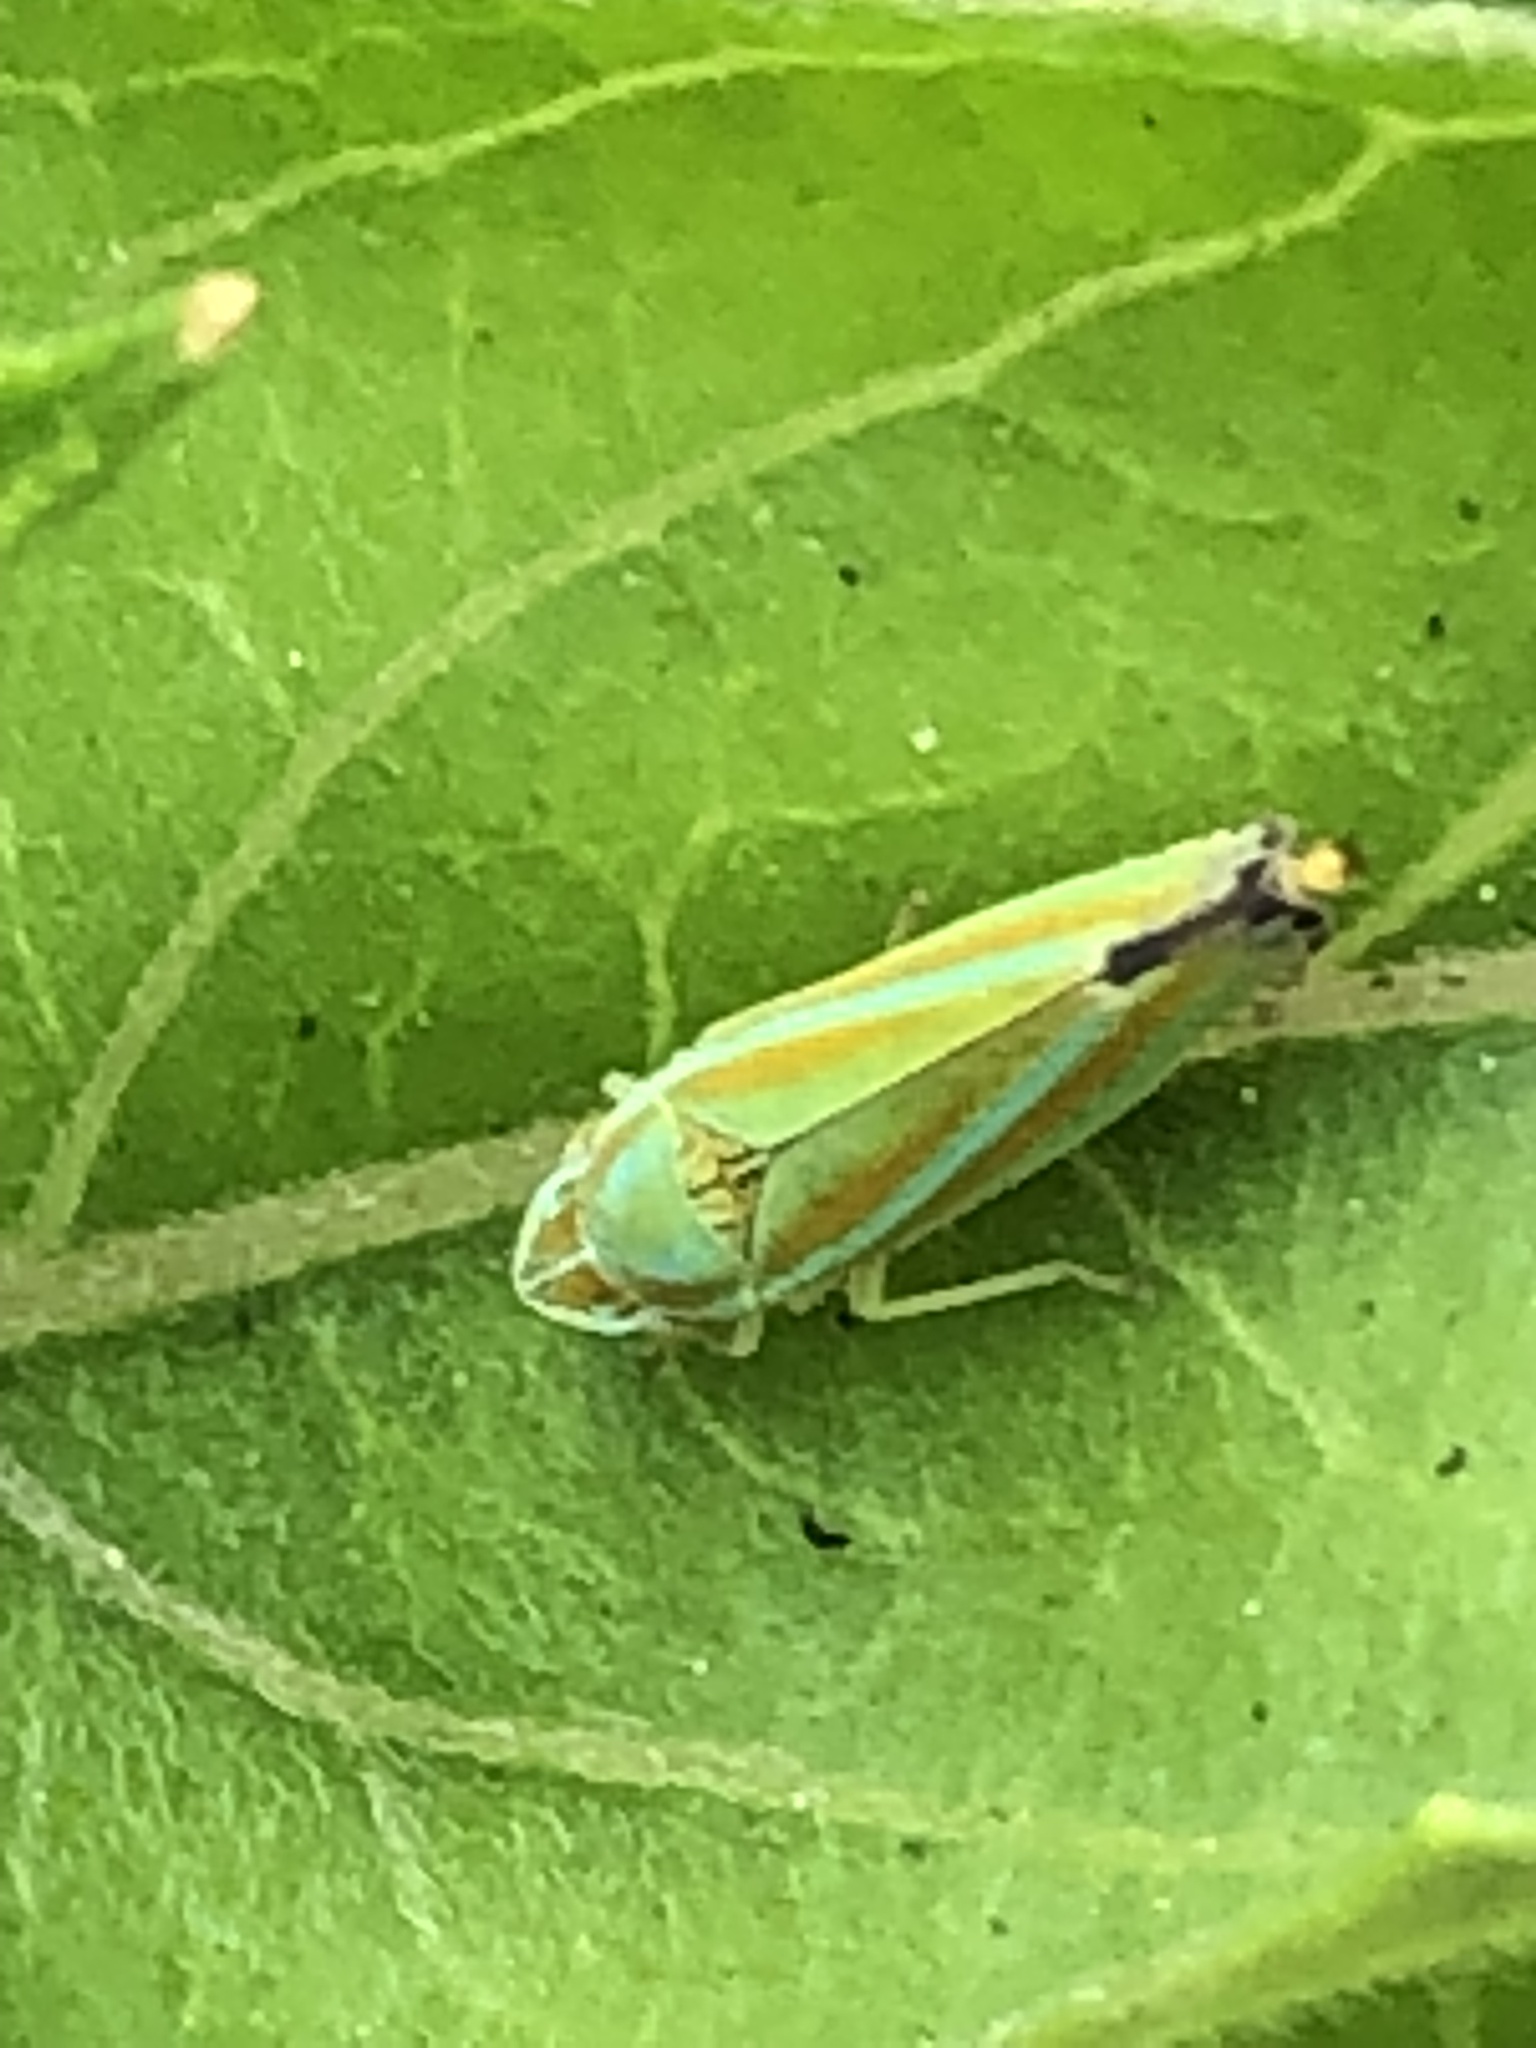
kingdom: Animalia
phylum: Arthropoda
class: Insecta
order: Hemiptera
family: Cicadellidae
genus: Graphocephala
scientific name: Graphocephala versuta
